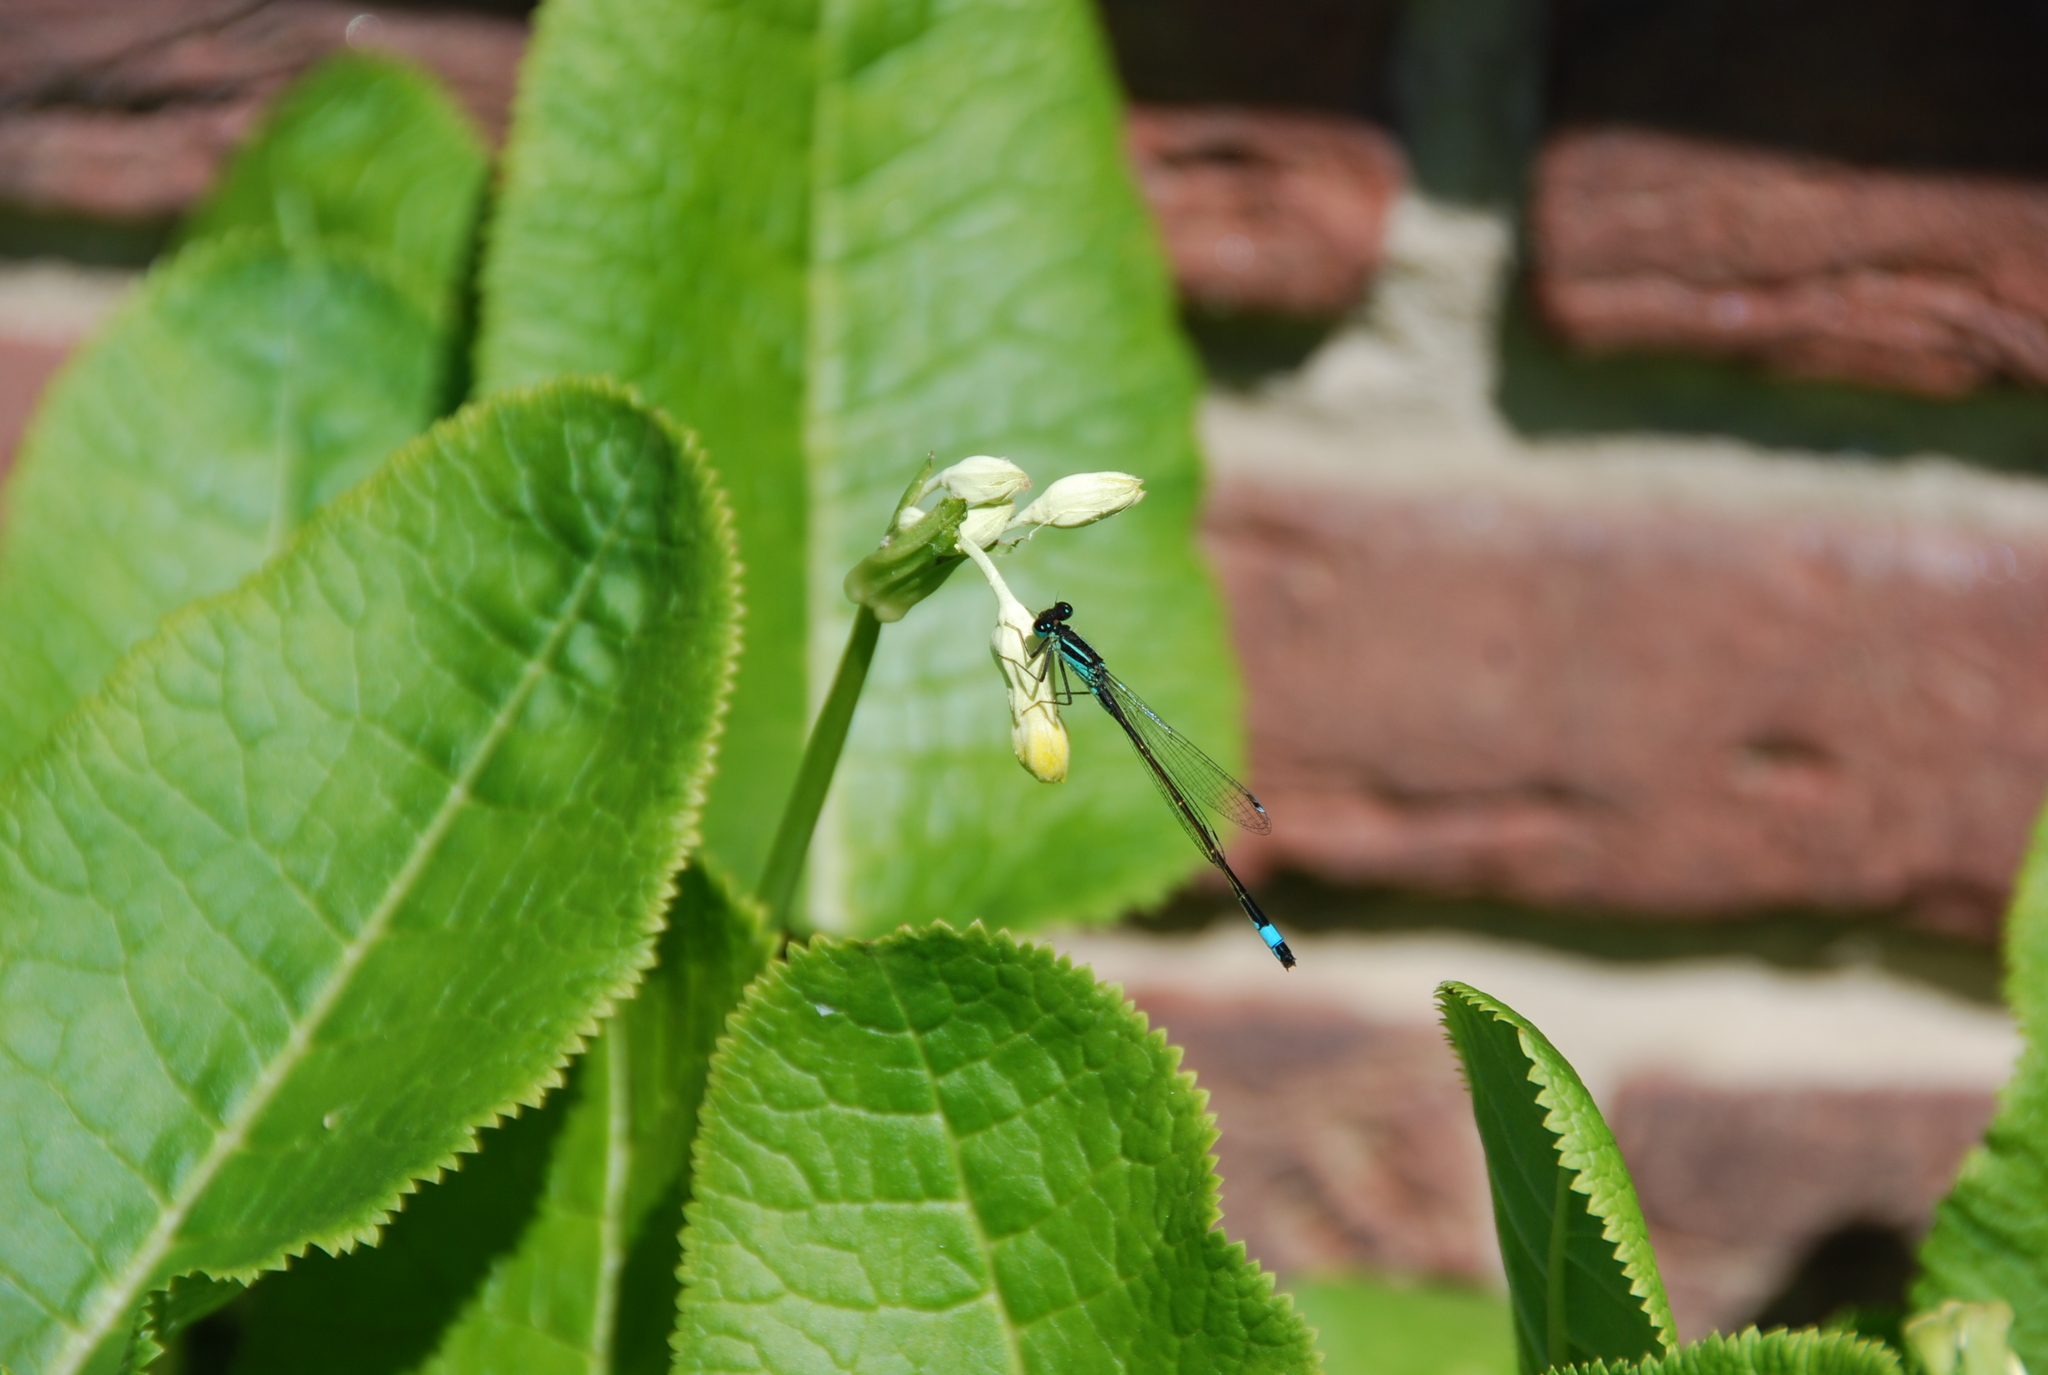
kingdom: Animalia
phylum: Arthropoda
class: Insecta
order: Odonata
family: Coenagrionidae
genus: Ischnura
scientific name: Ischnura elegans
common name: Blue-tailed damselfly
